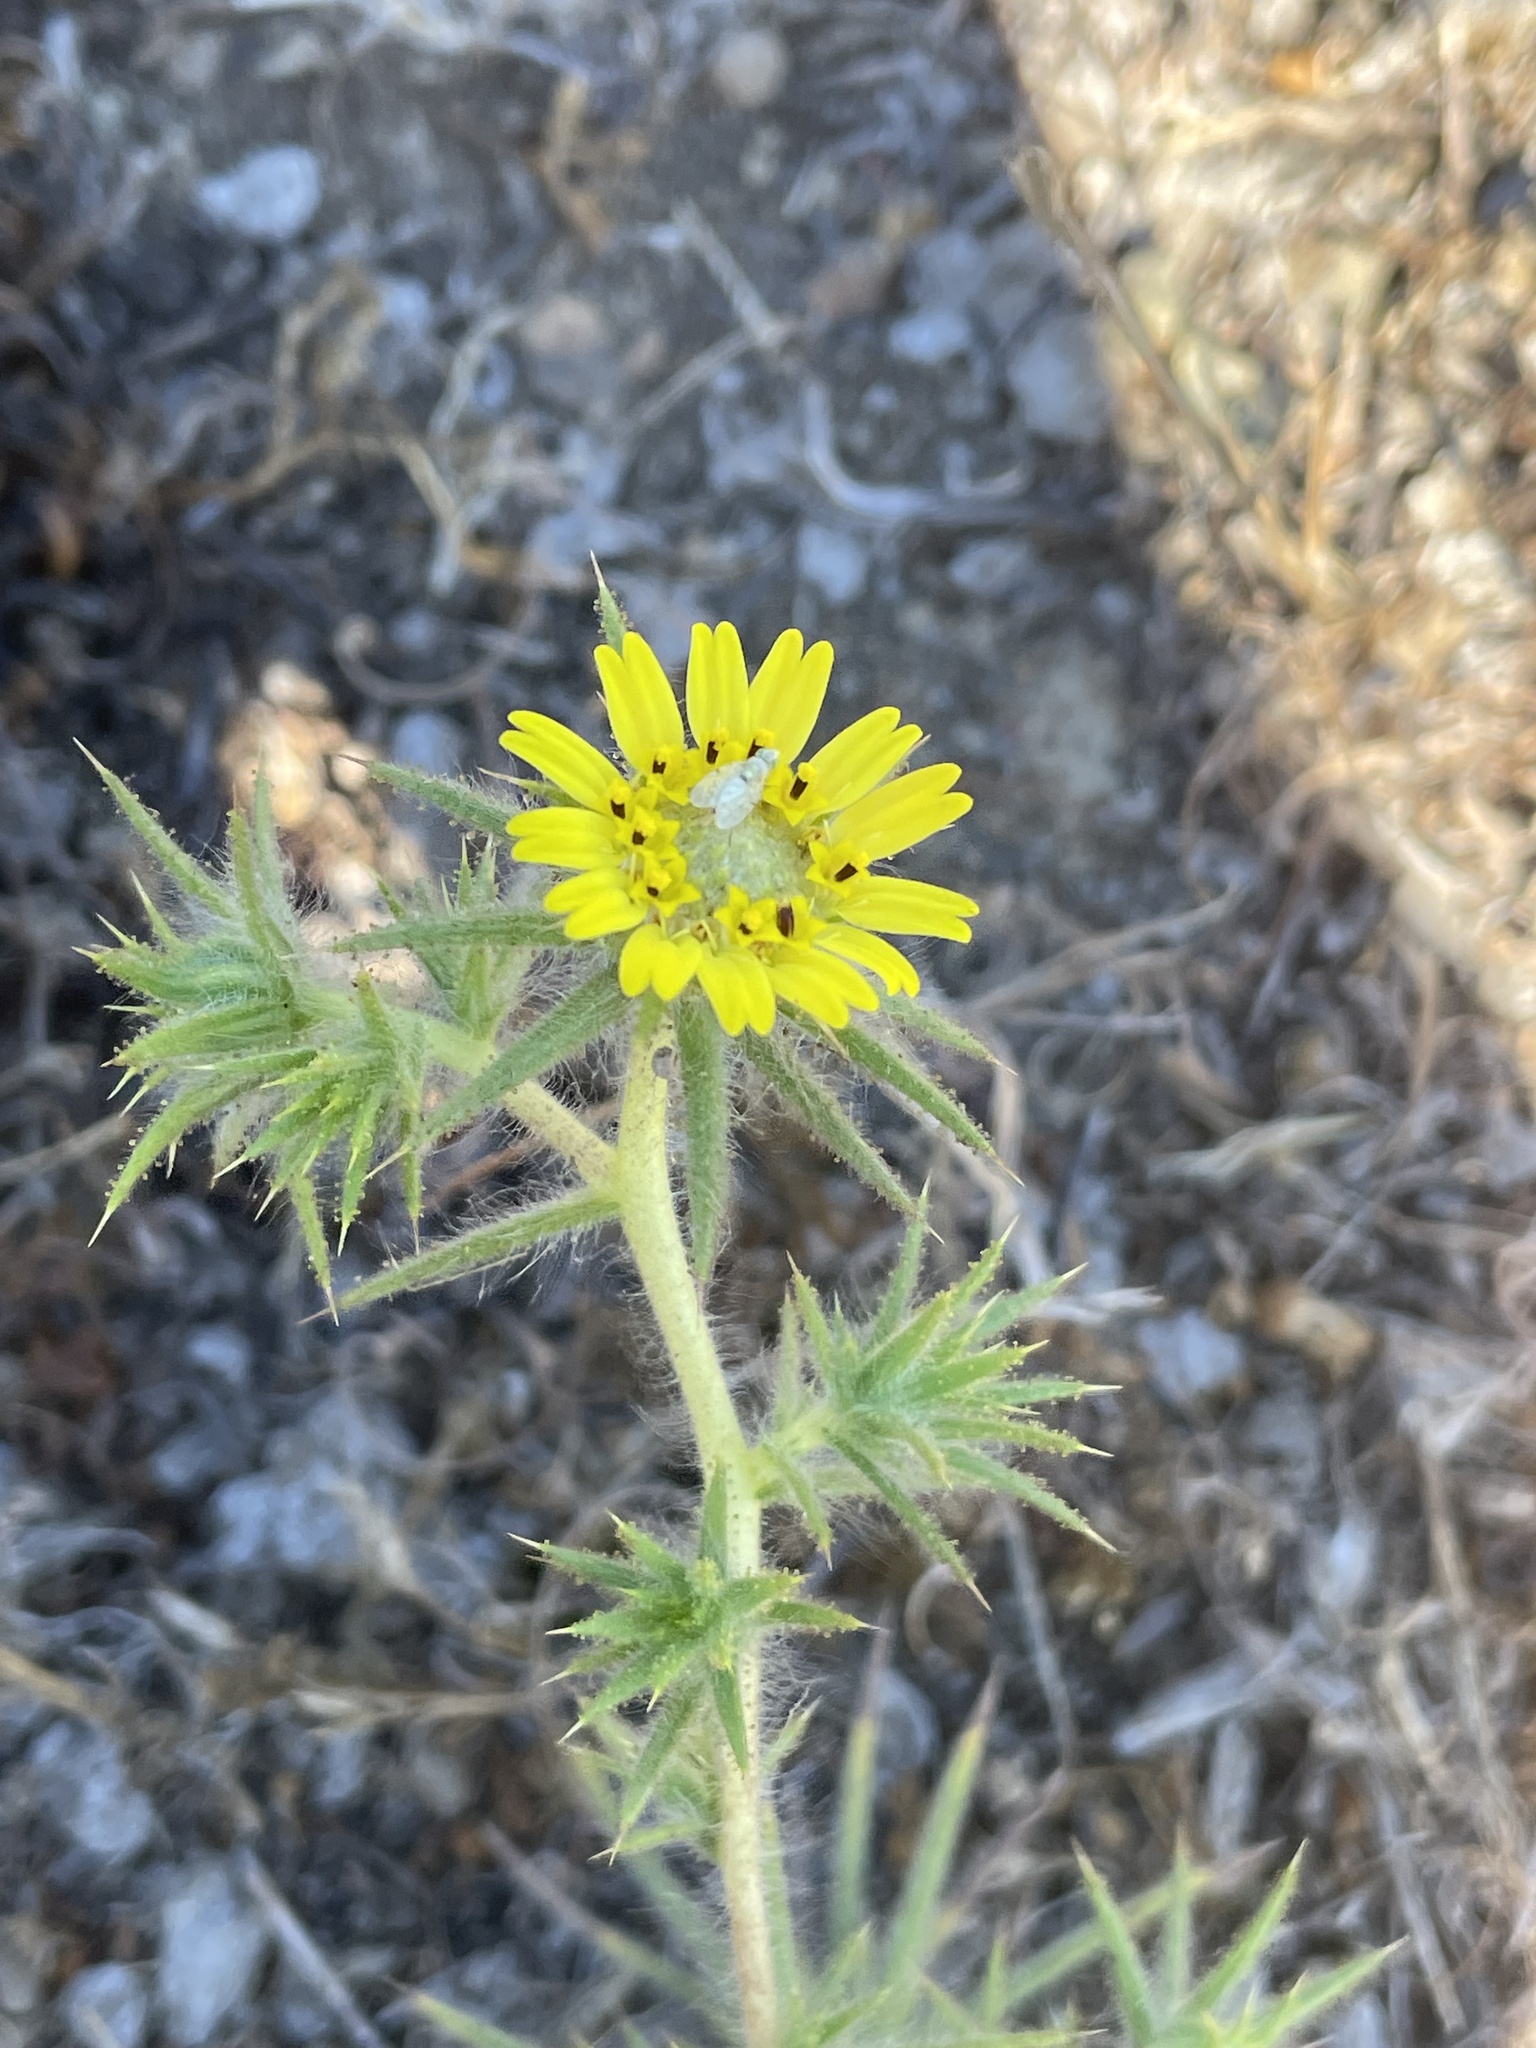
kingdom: Plantae
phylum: Tracheophyta
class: Magnoliopsida
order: Asterales
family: Asteraceae
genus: Centromadia
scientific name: Centromadia fitchii
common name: Fitch's spikeweed
